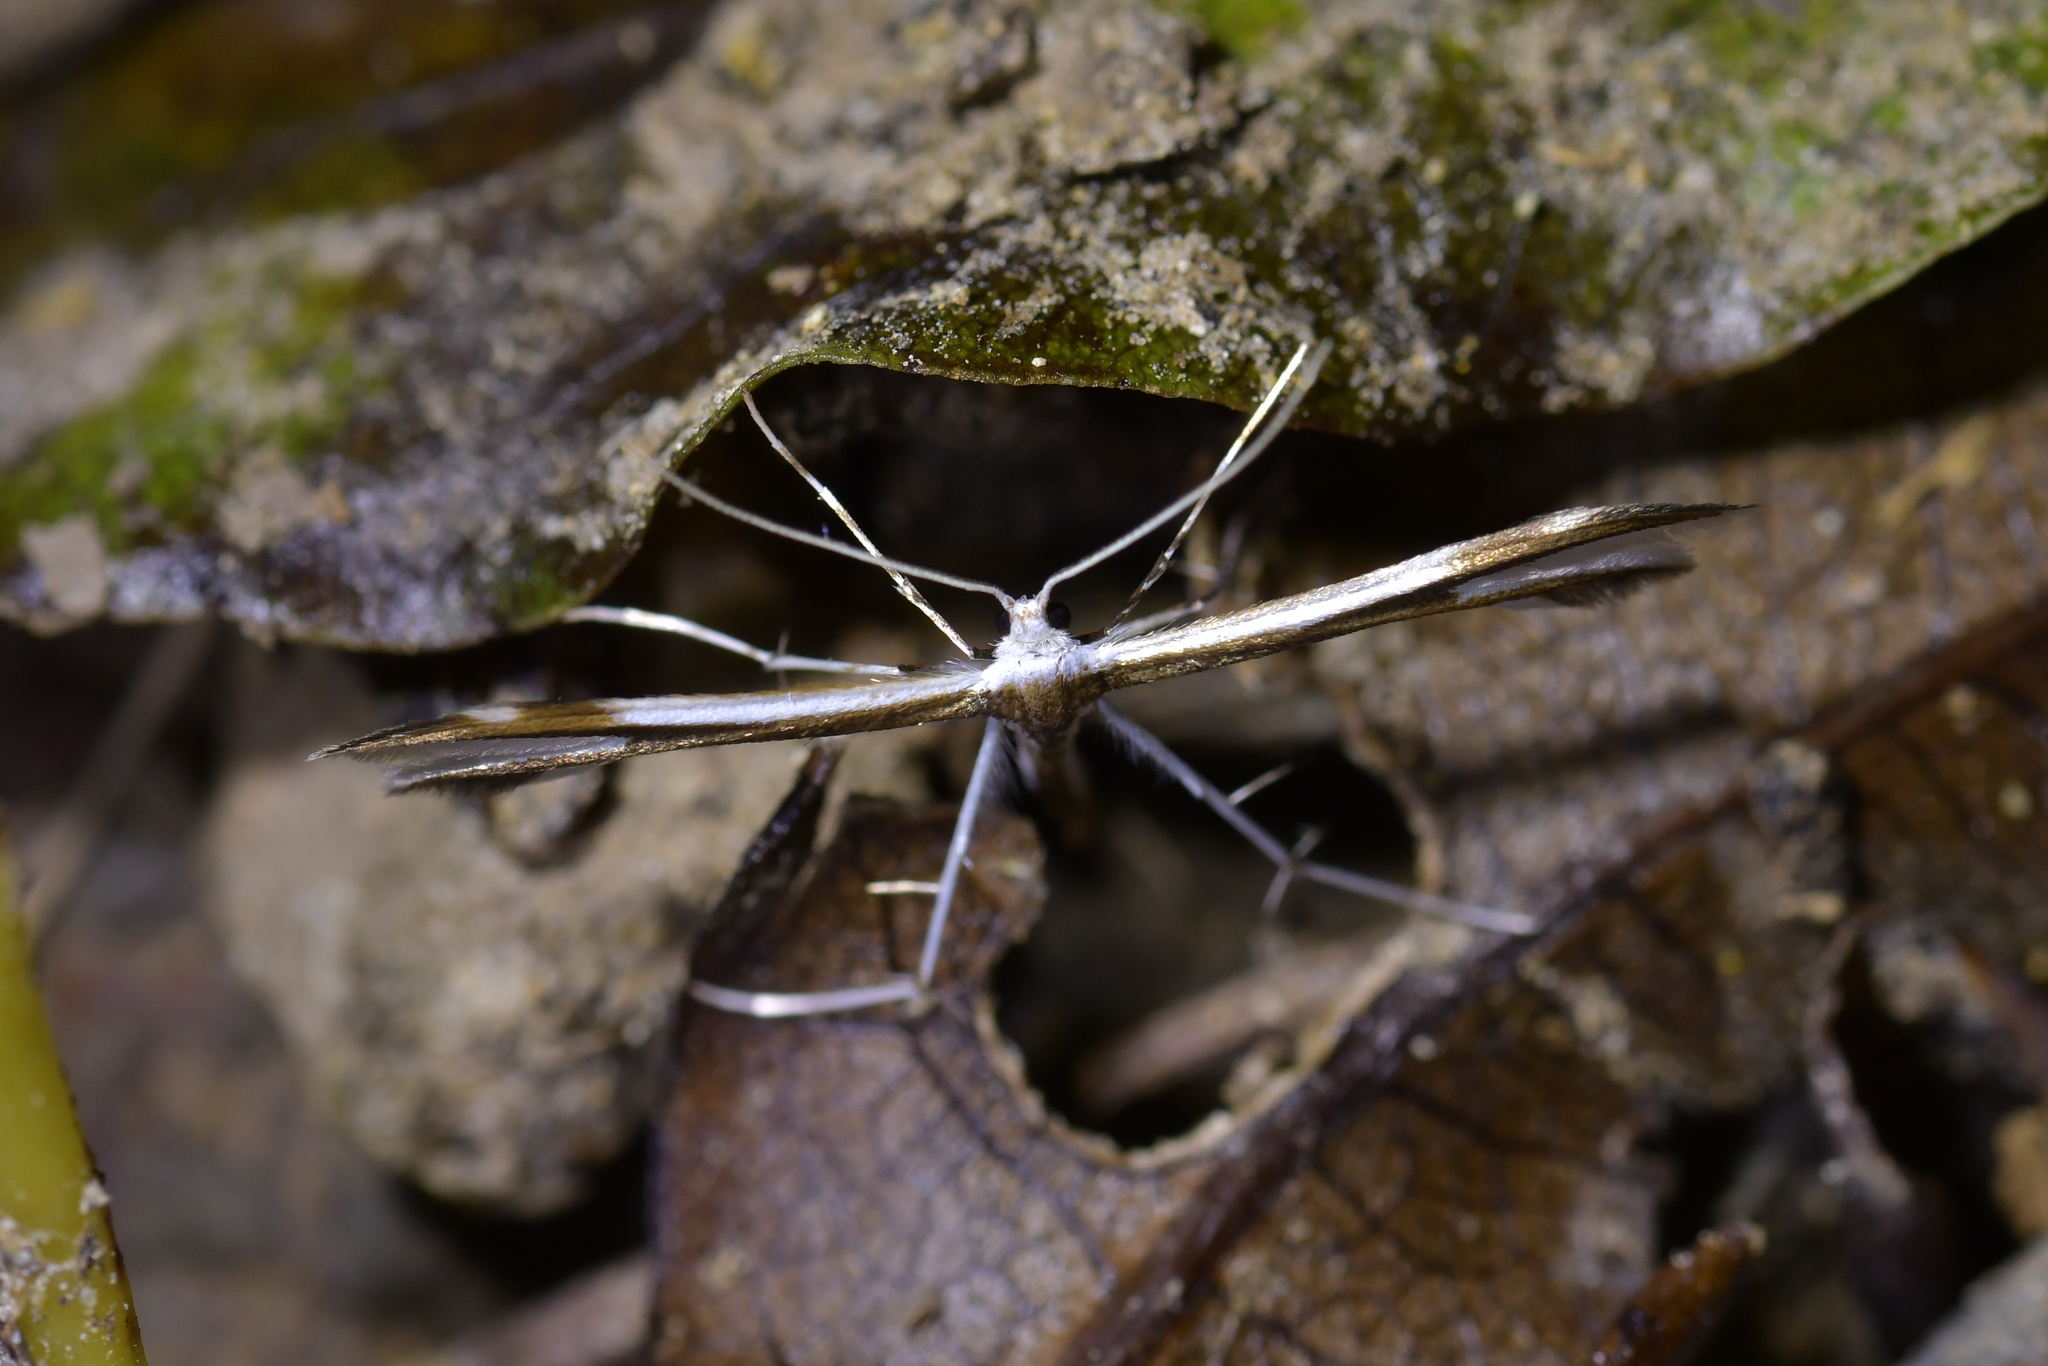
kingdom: Animalia
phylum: Arthropoda
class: Insecta
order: Lepidoptera
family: Pterophoridae
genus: Pterophorus
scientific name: Pterophorus furcatalis
